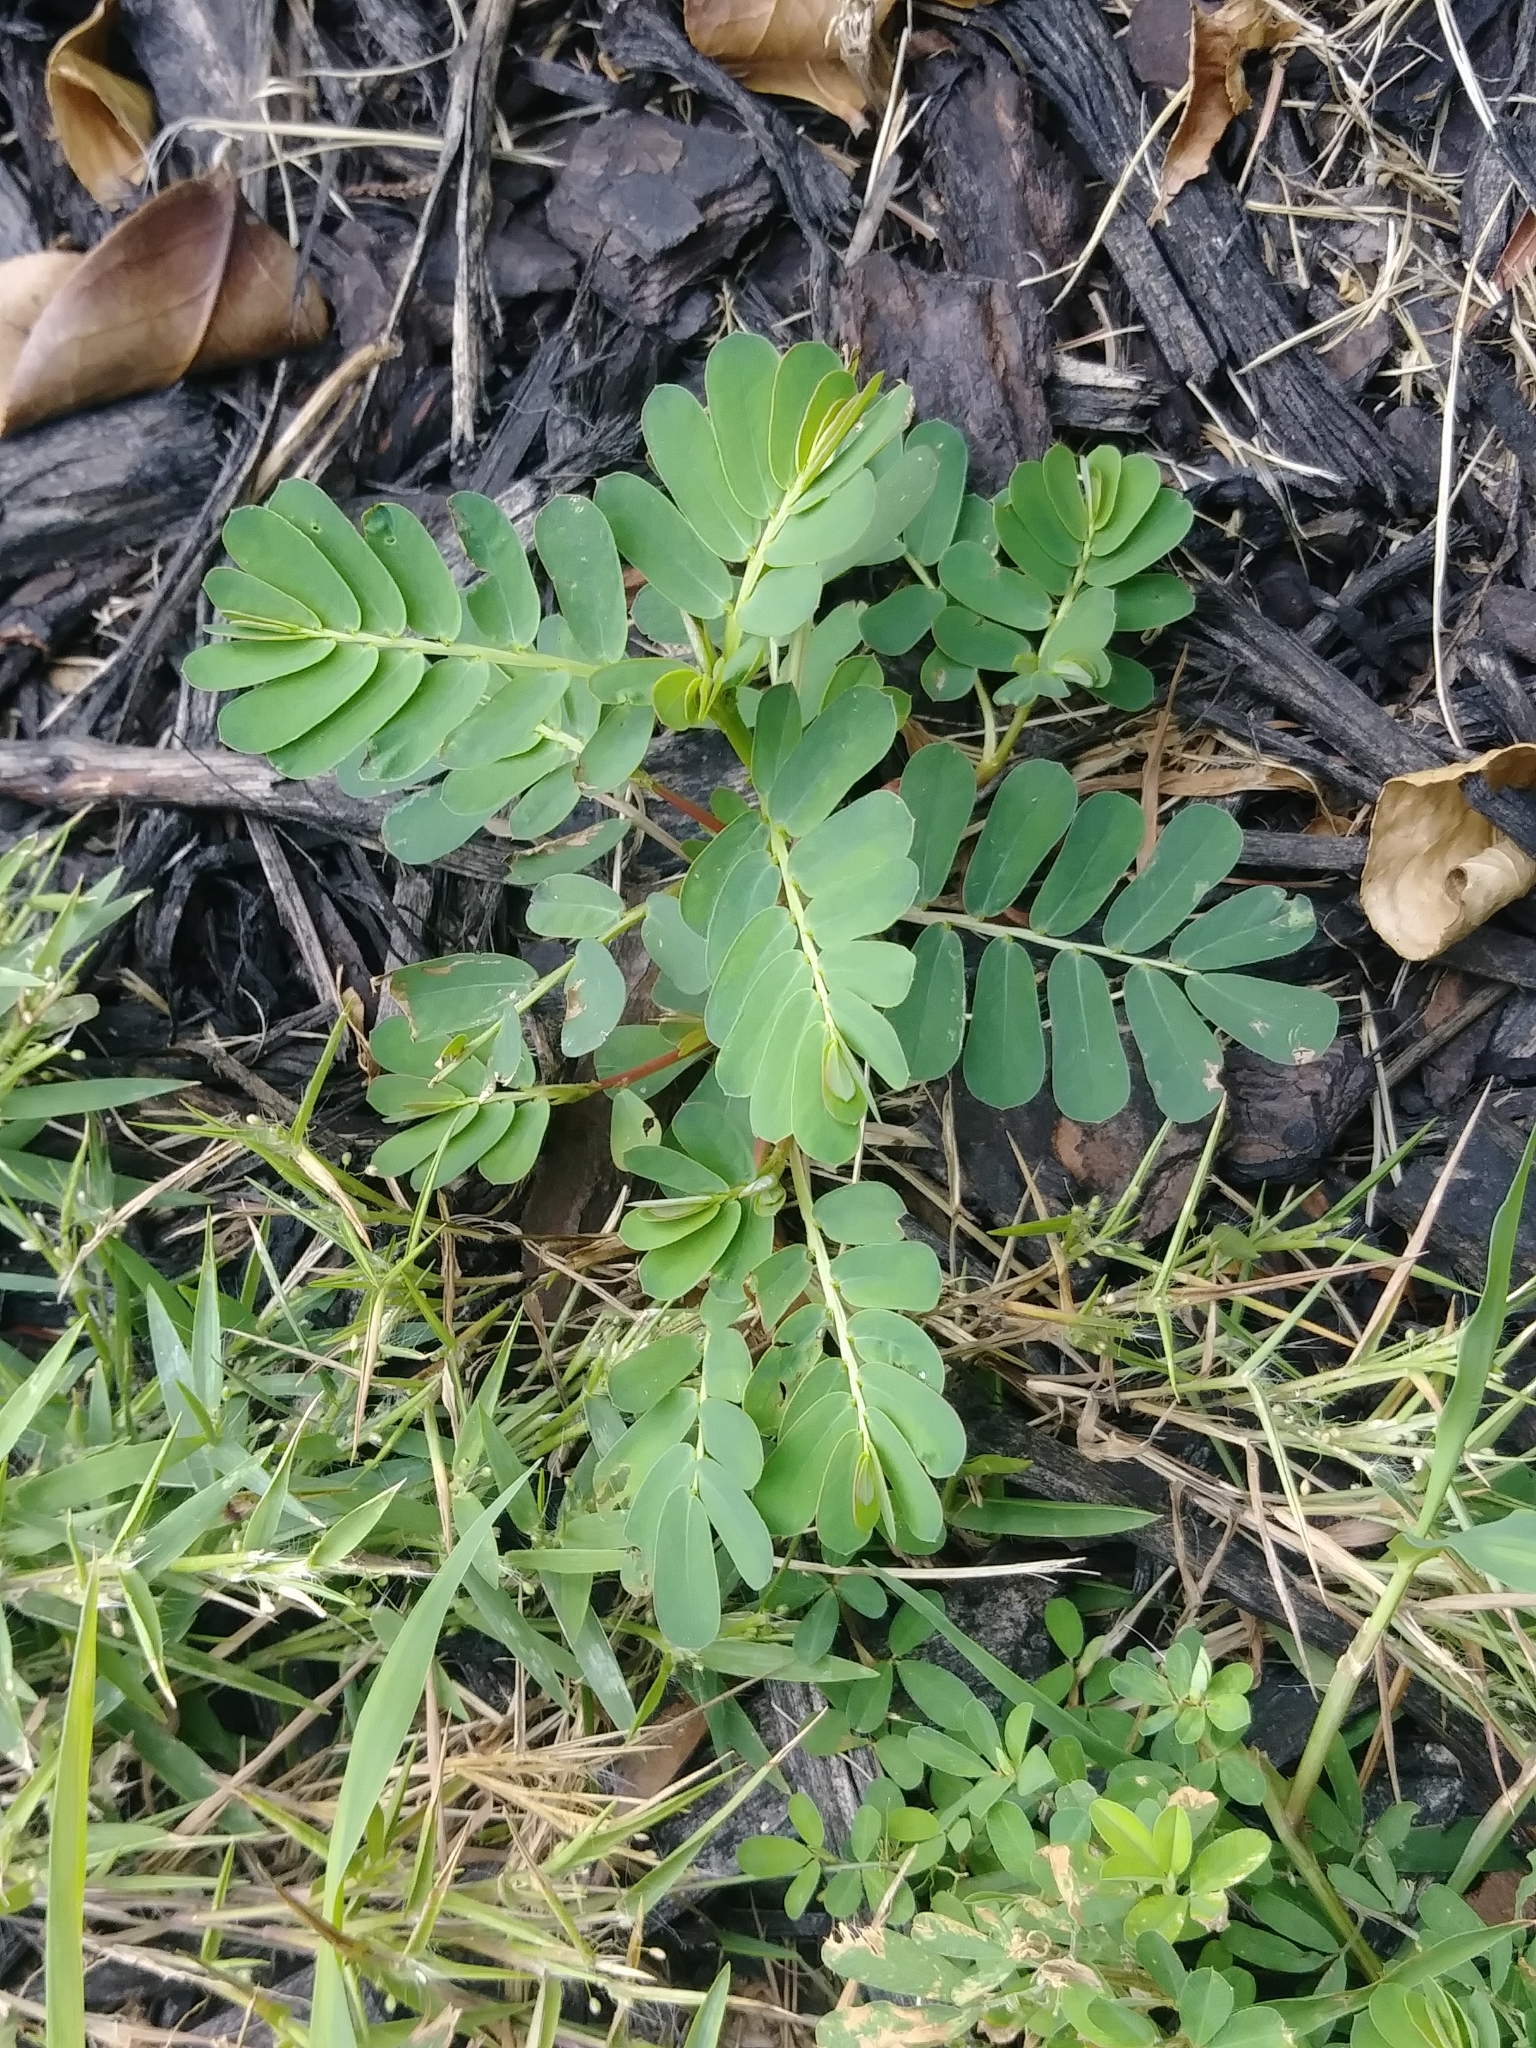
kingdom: Plantae
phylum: Tracheophyta
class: Magnoliopsida
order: Malpighiales
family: Phyllanthaceae
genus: Phyllanthus
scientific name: Phyllanthus urinaria
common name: Chamber bitter
